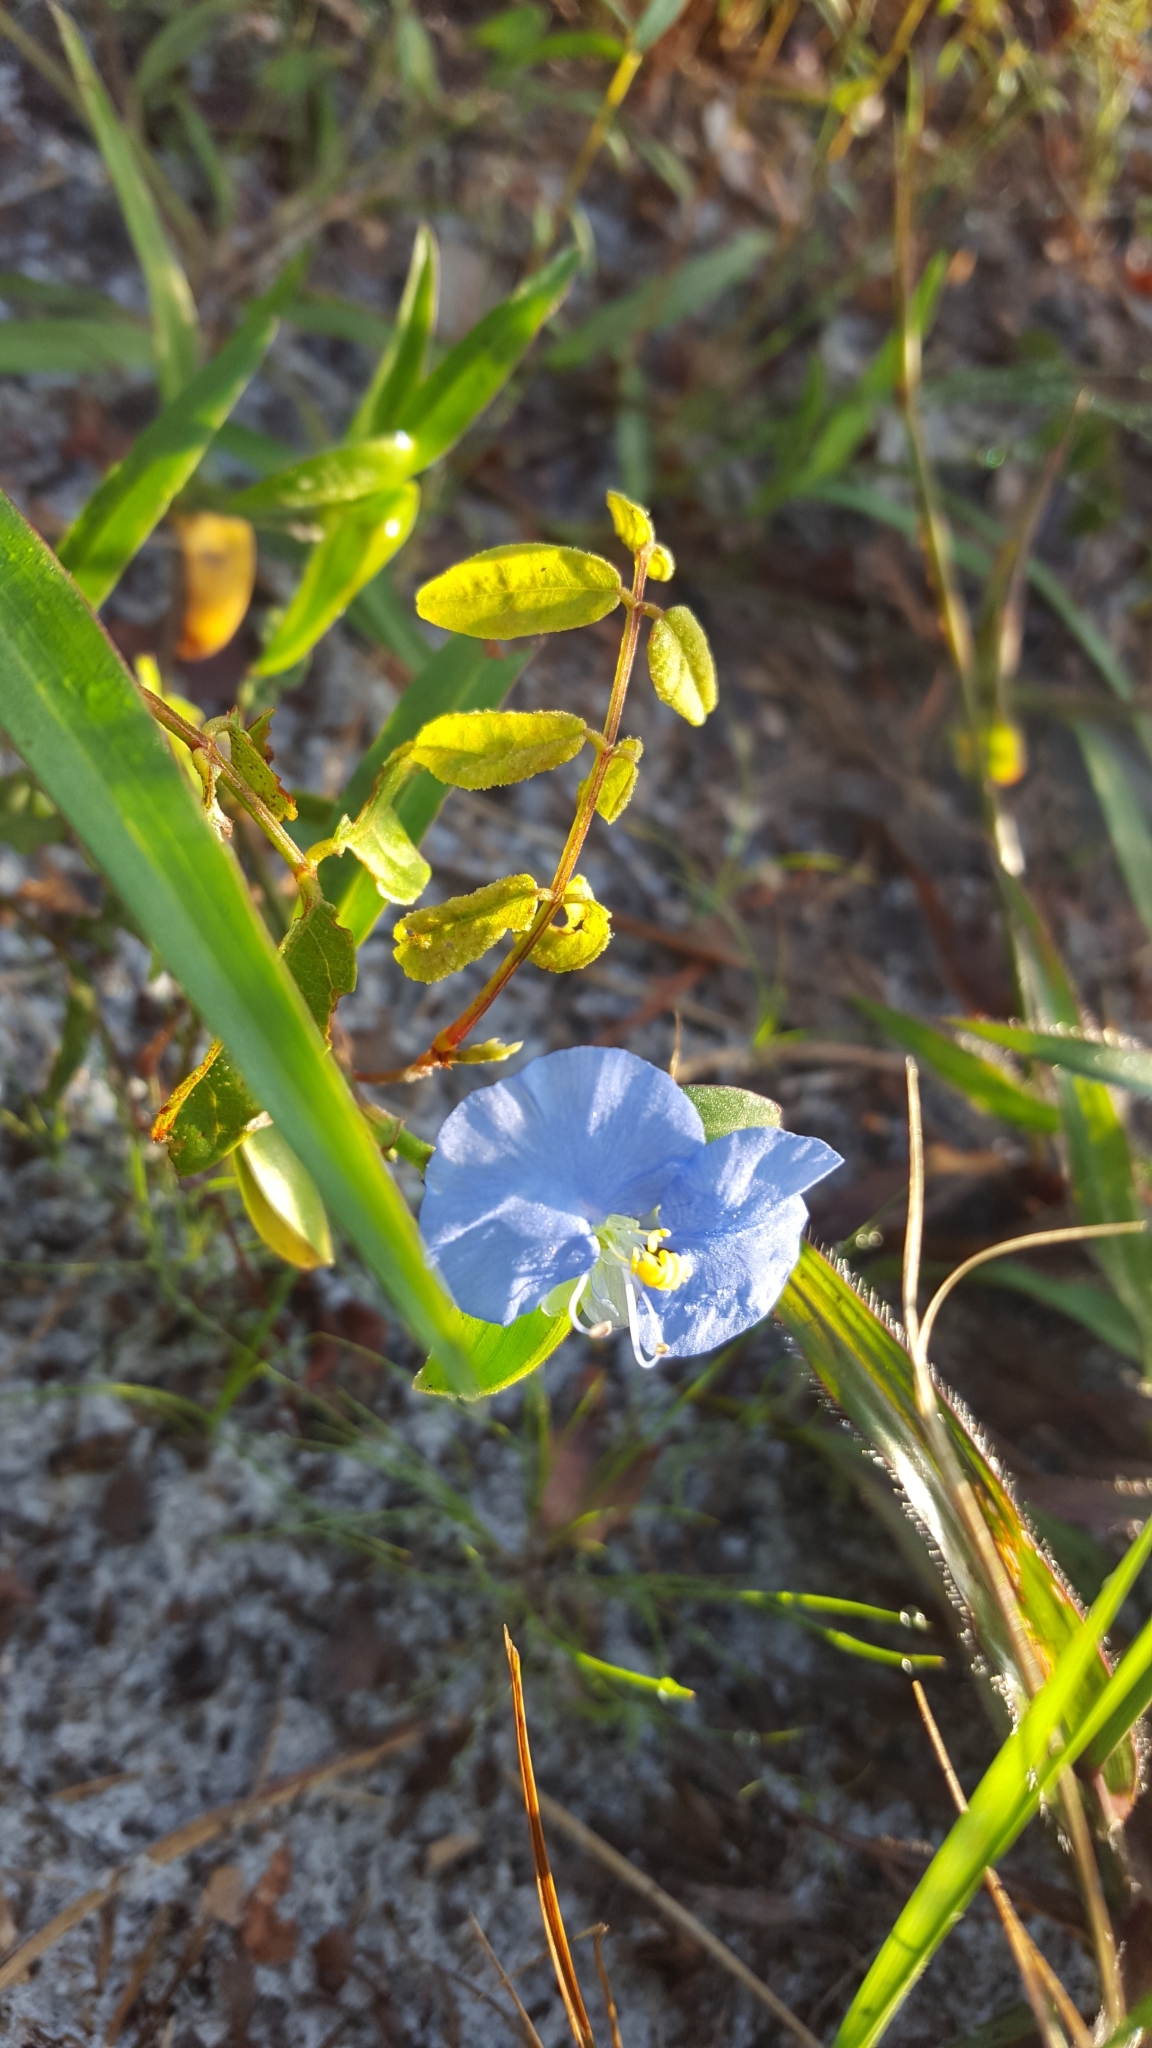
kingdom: Plantae
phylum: Tracheophyta
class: Liliopsida
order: Commelinales
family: Commelinaceae
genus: Commelina
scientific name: Commelina erecta
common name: Blousel blommetjie
